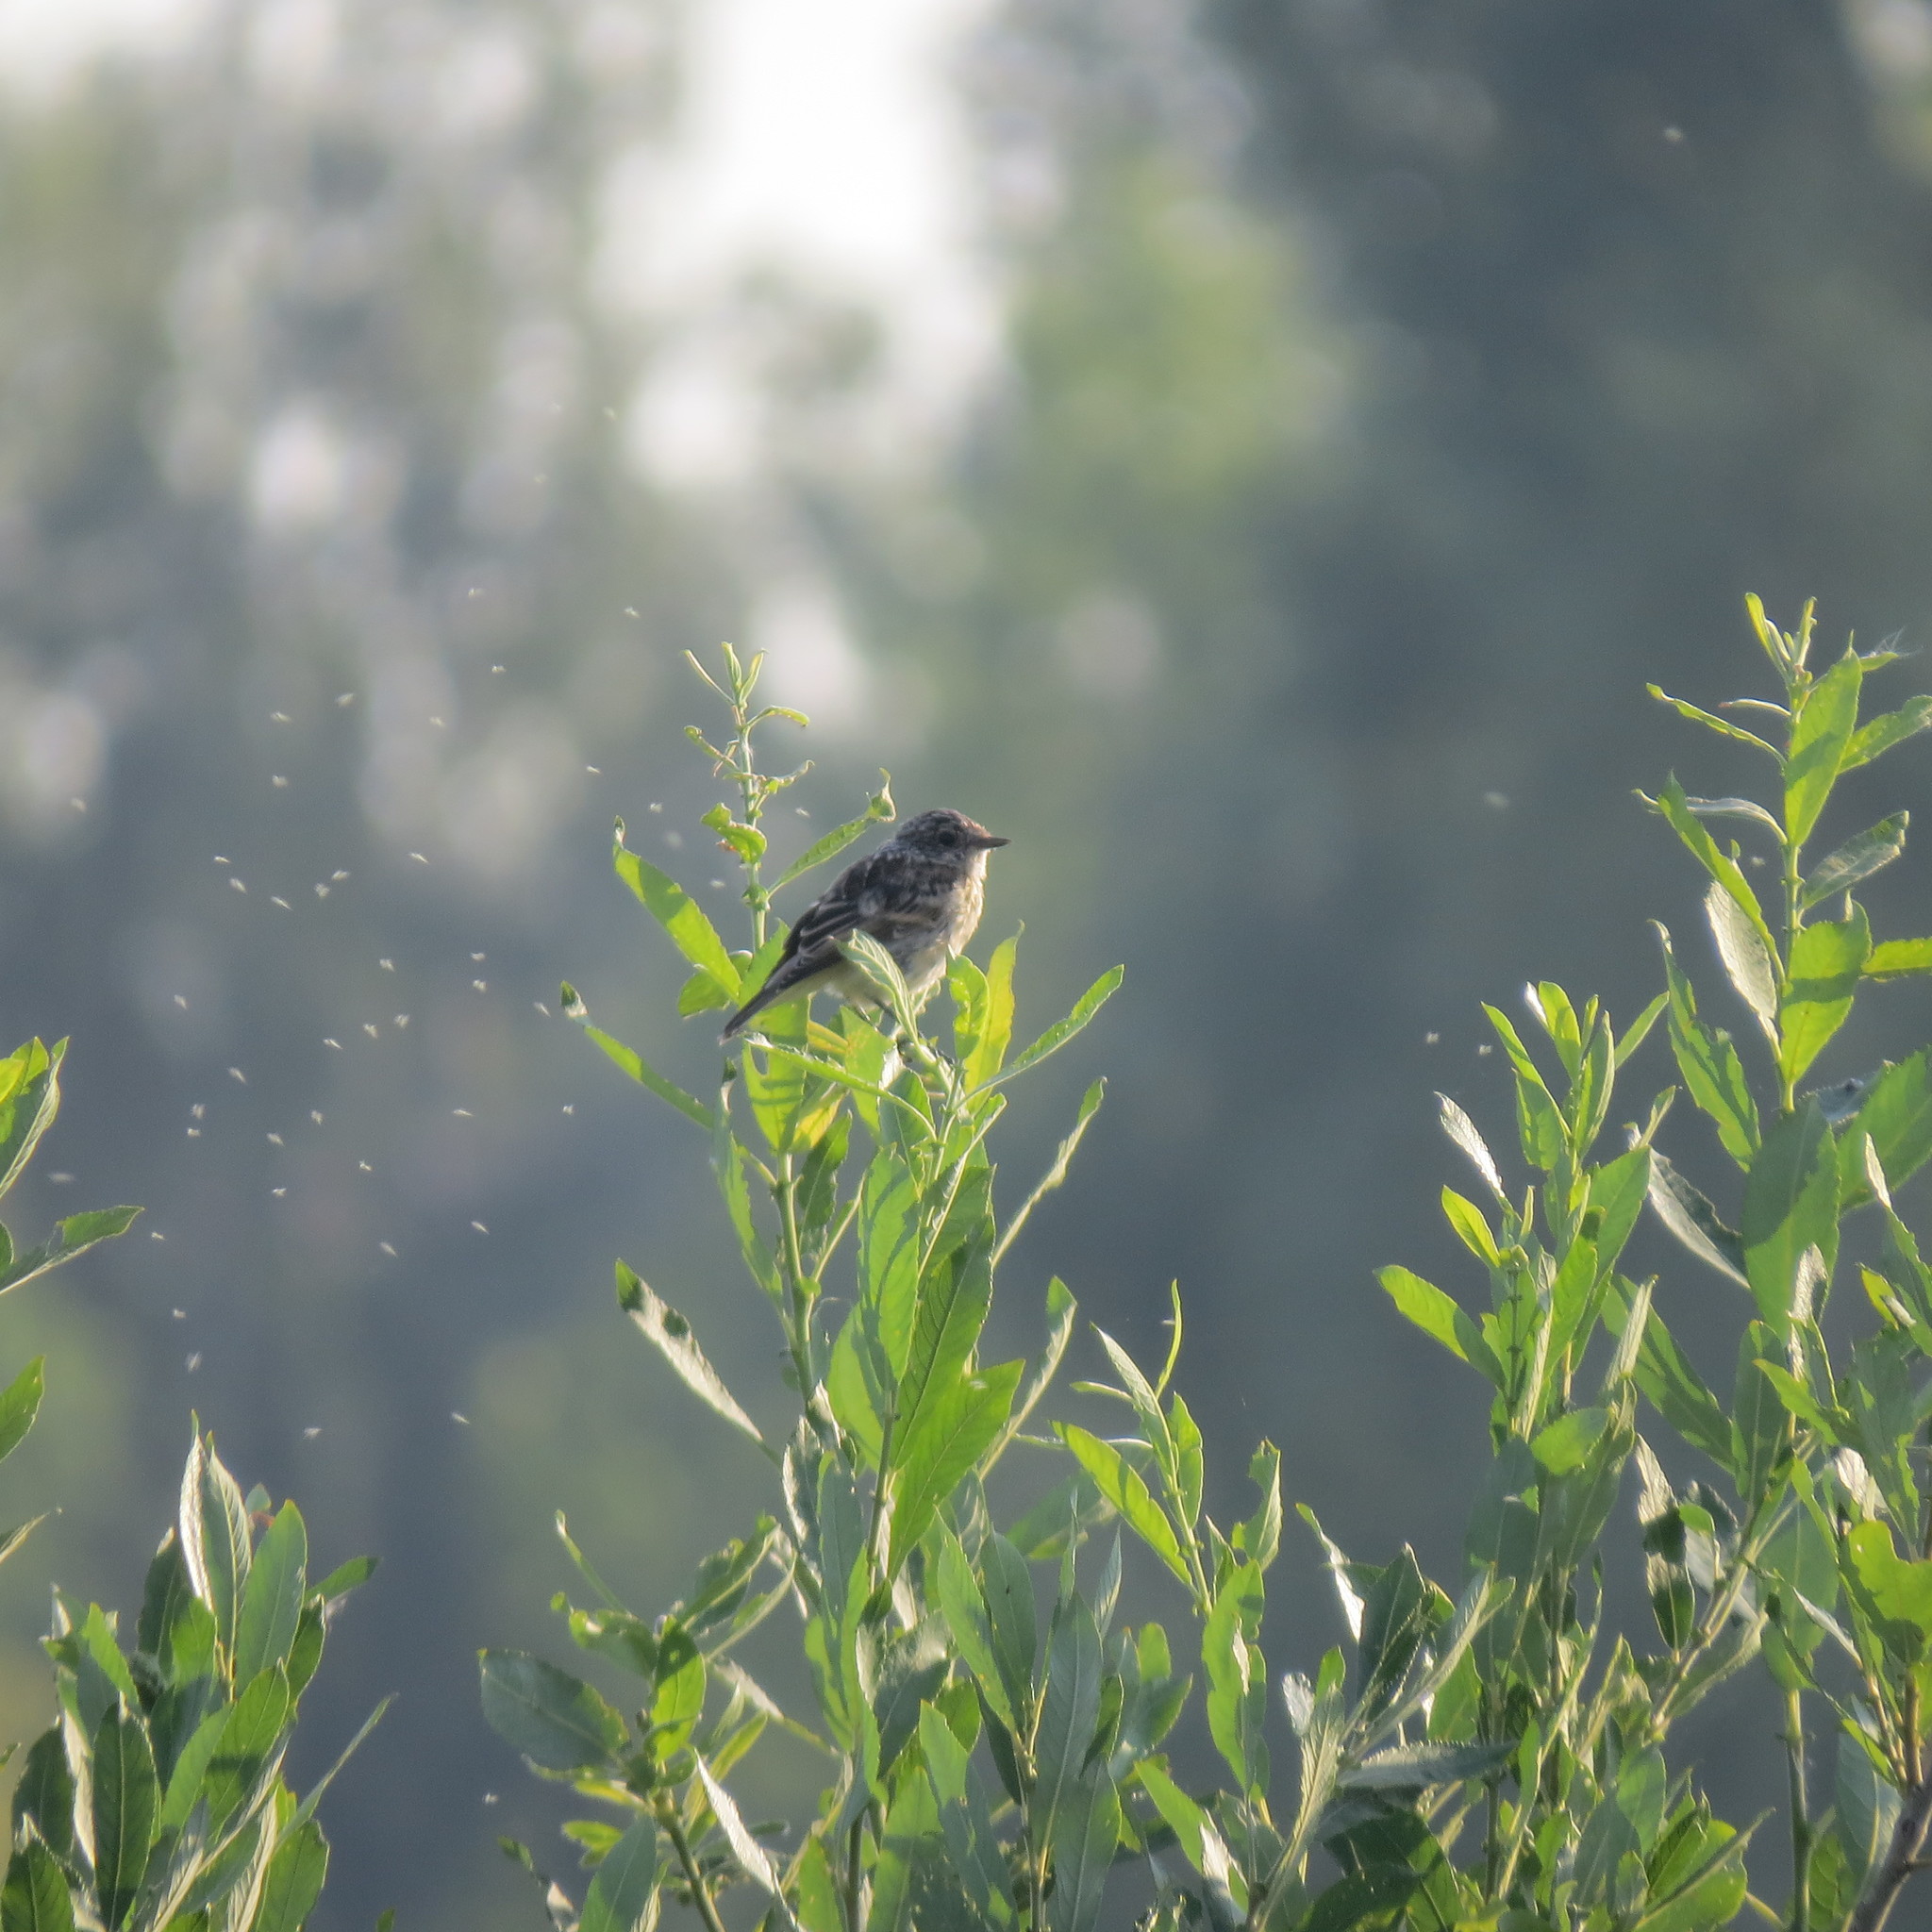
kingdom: Animalia
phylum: Chordata
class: Aves
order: Passeriformes
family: Muscicapidae
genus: Saxicola
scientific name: Saxicola maurus
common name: Siberian stonechat
